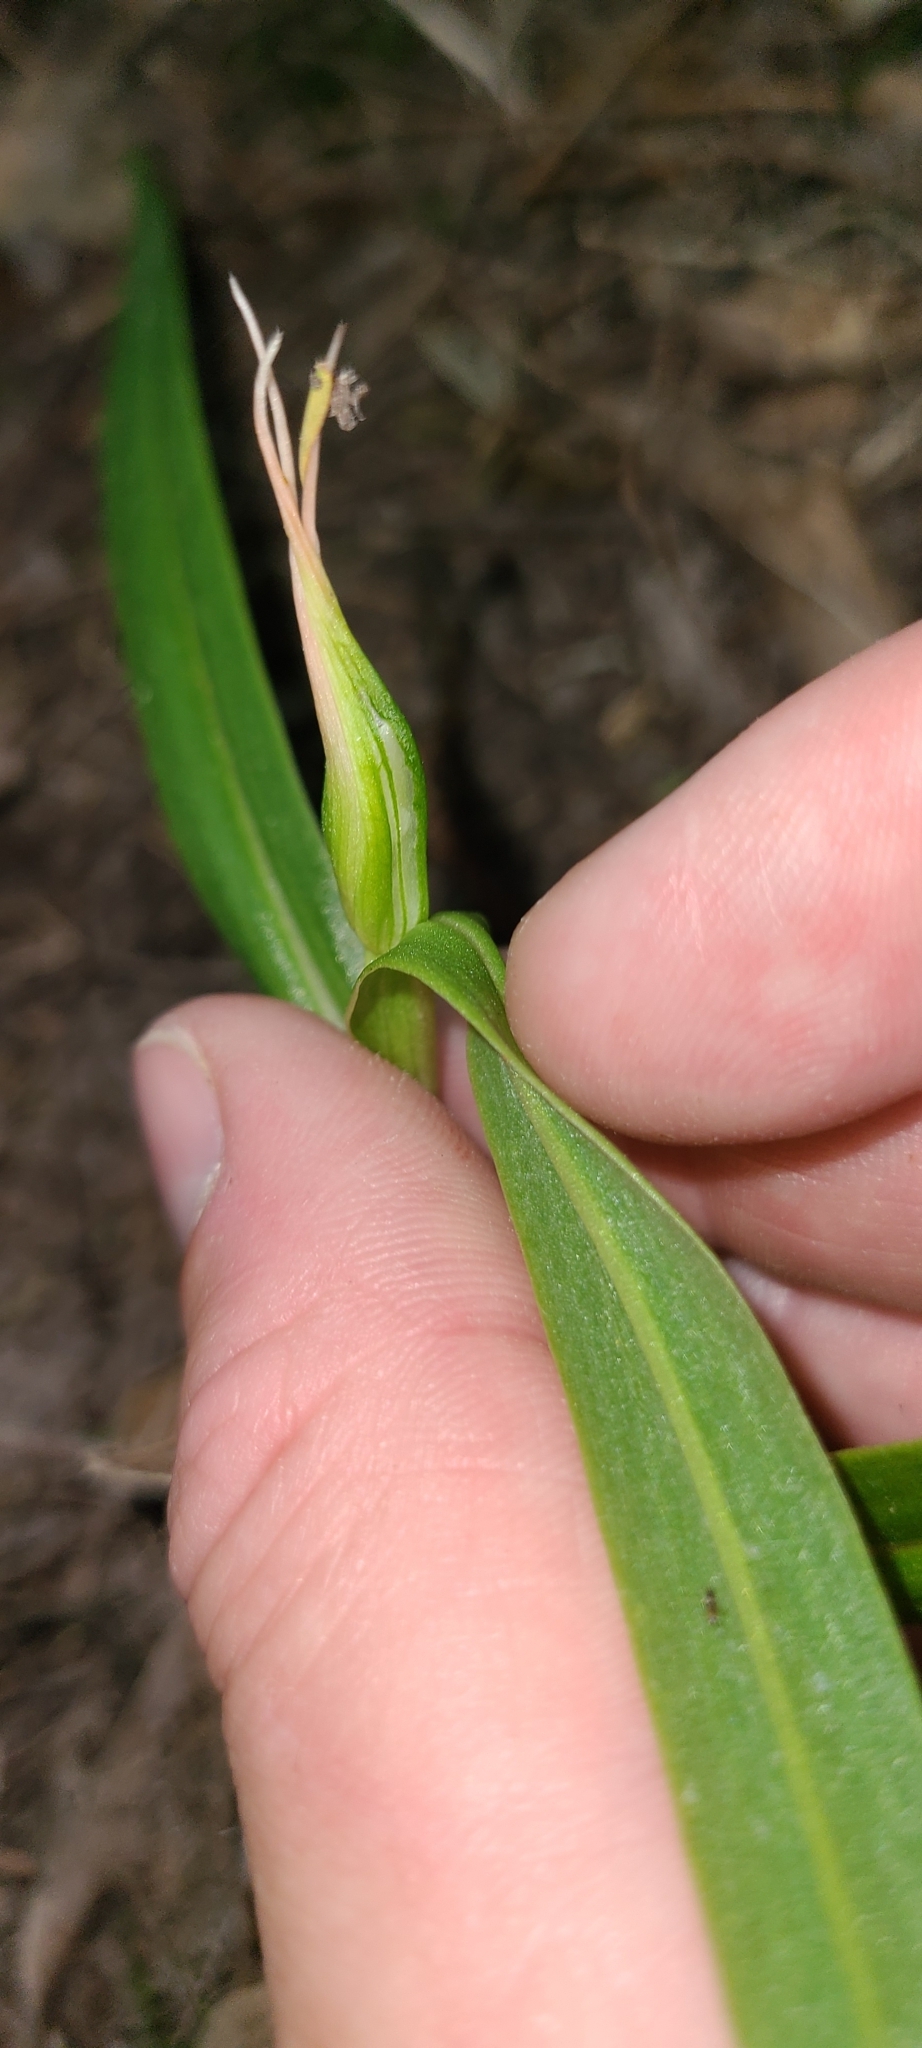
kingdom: Plantae
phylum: Tracheophyta
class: Liliopsida
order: Asparagales
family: Orchidaceae
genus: Pterostylis
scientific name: Pterostylis banksii
